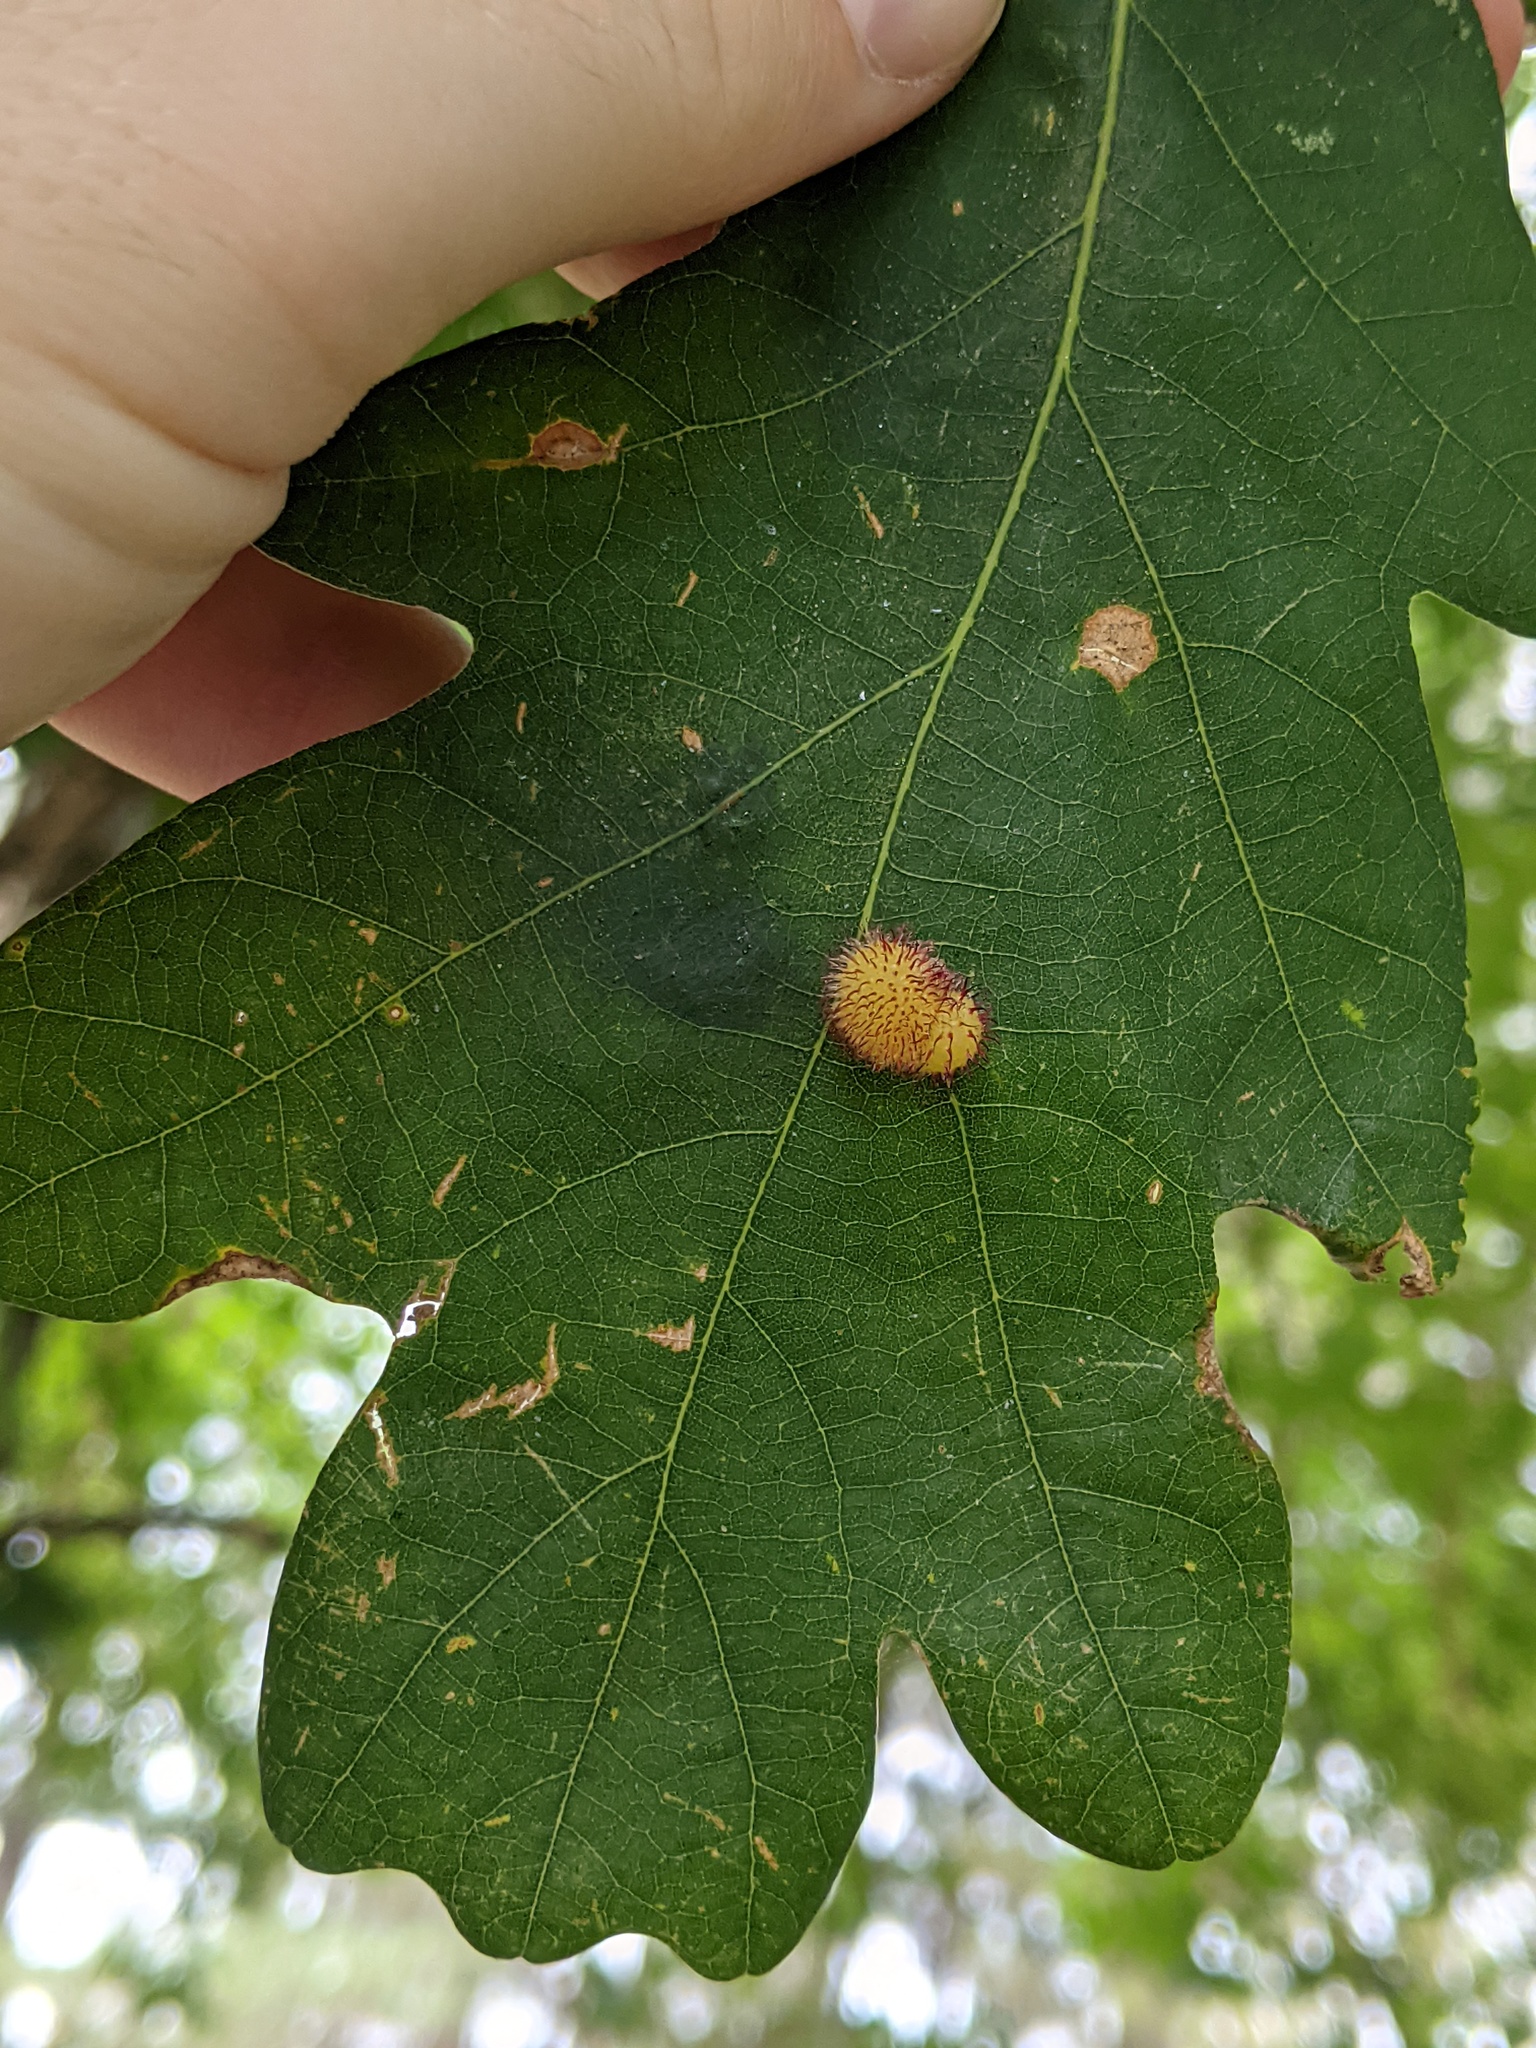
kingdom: Animalia
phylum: Arthropoda
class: Insecta
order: Hymenoptera
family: Cynipidae
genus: Acraspis
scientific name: Acraspis erinacei
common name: Hedgehog gall wasp
